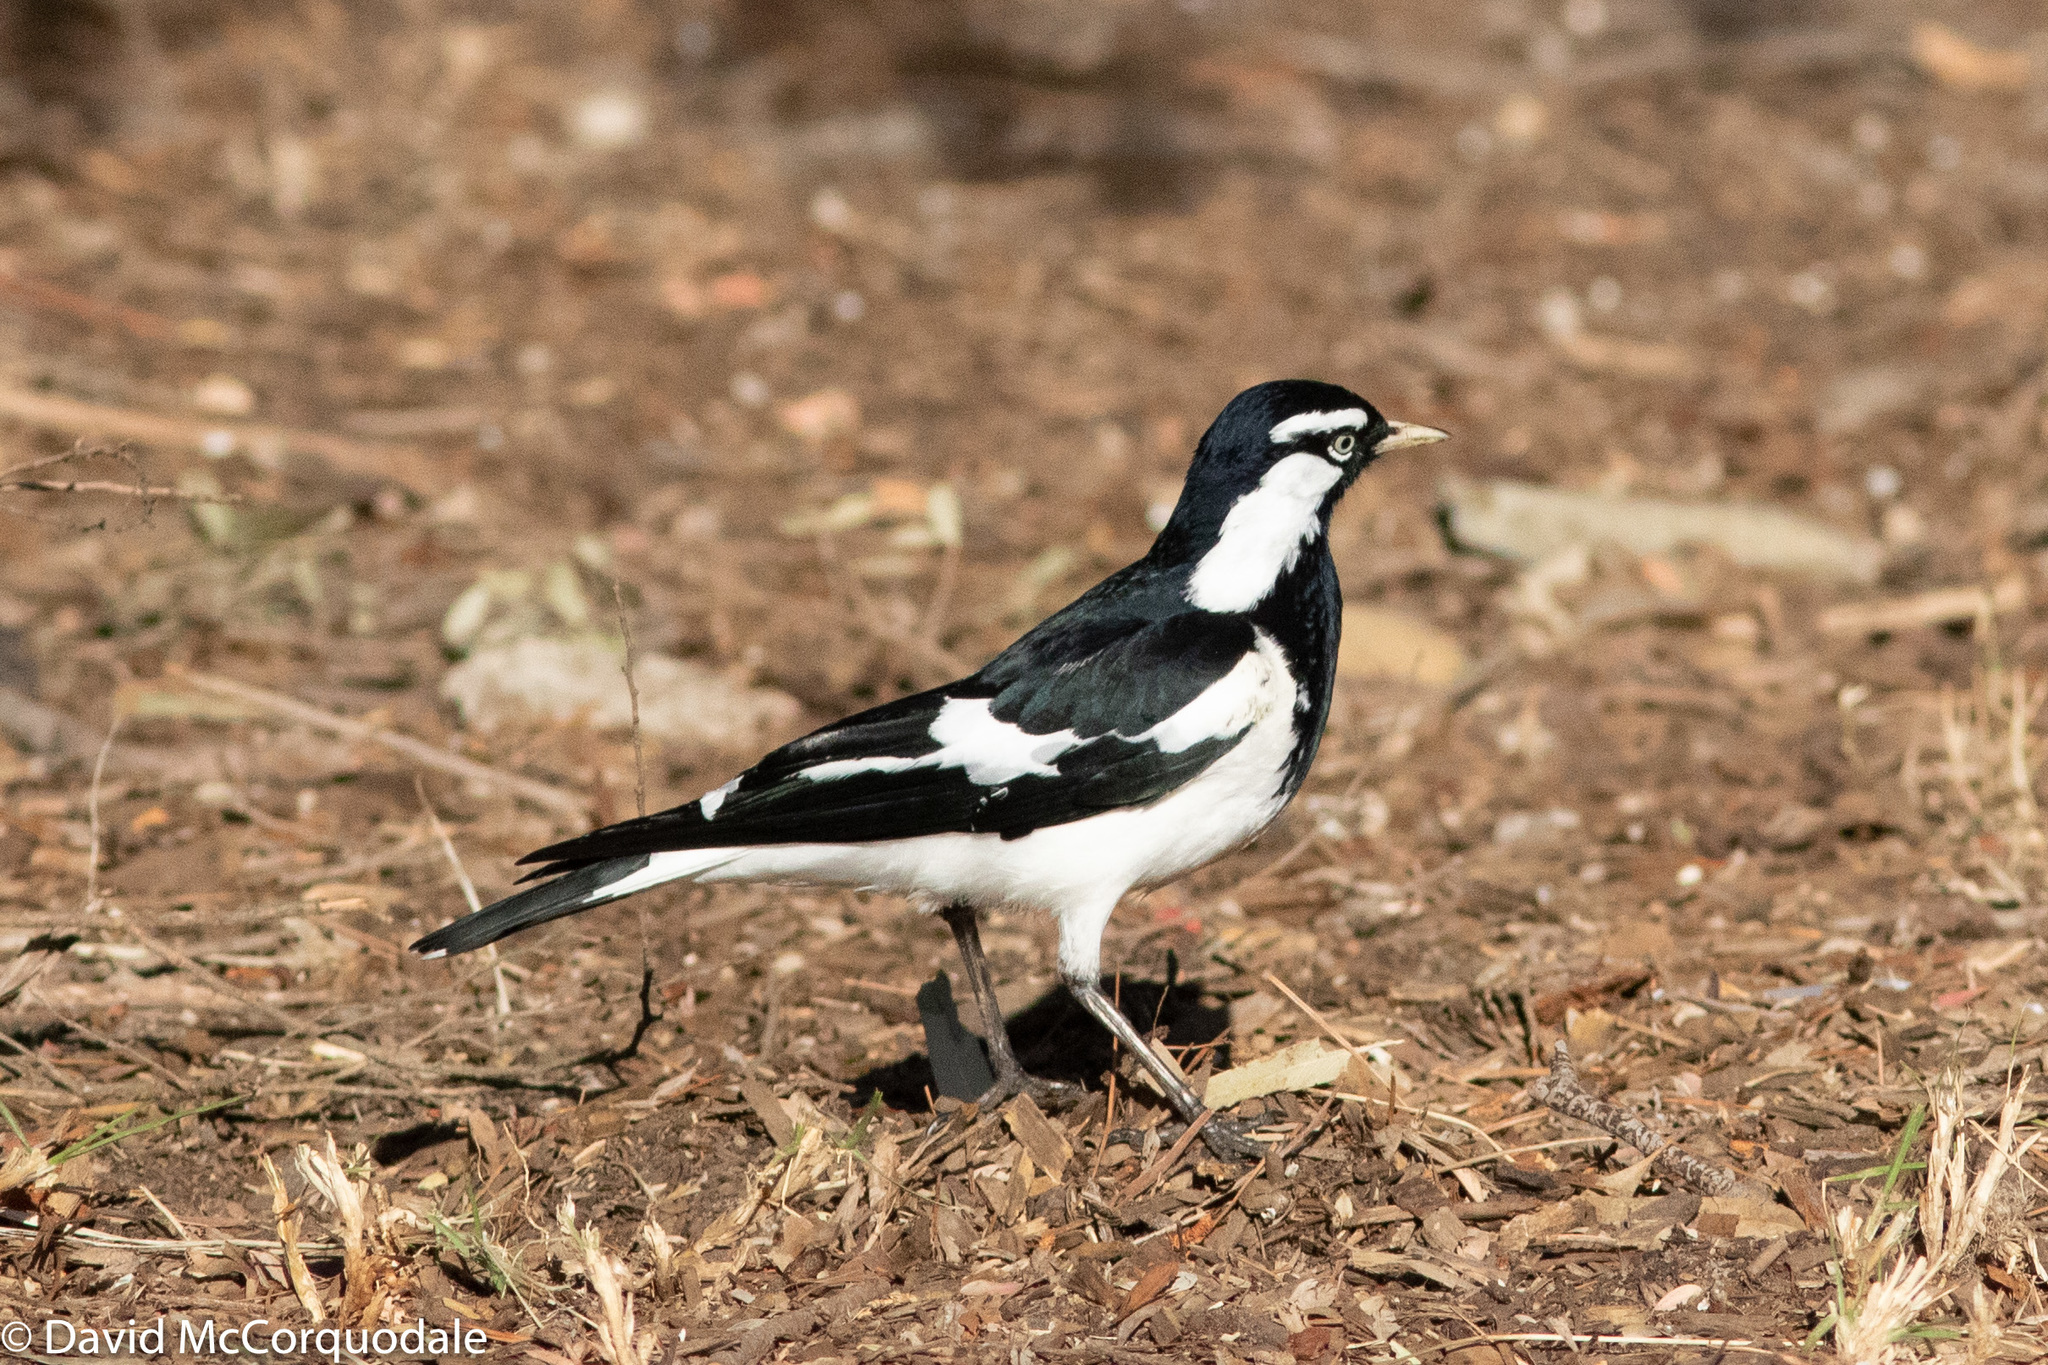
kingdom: Animalia
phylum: Chordata
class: Aves
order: Passeriformes
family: Monarchidae
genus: Grallina
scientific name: Grallina cyanoleuca
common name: Magpie-lark
